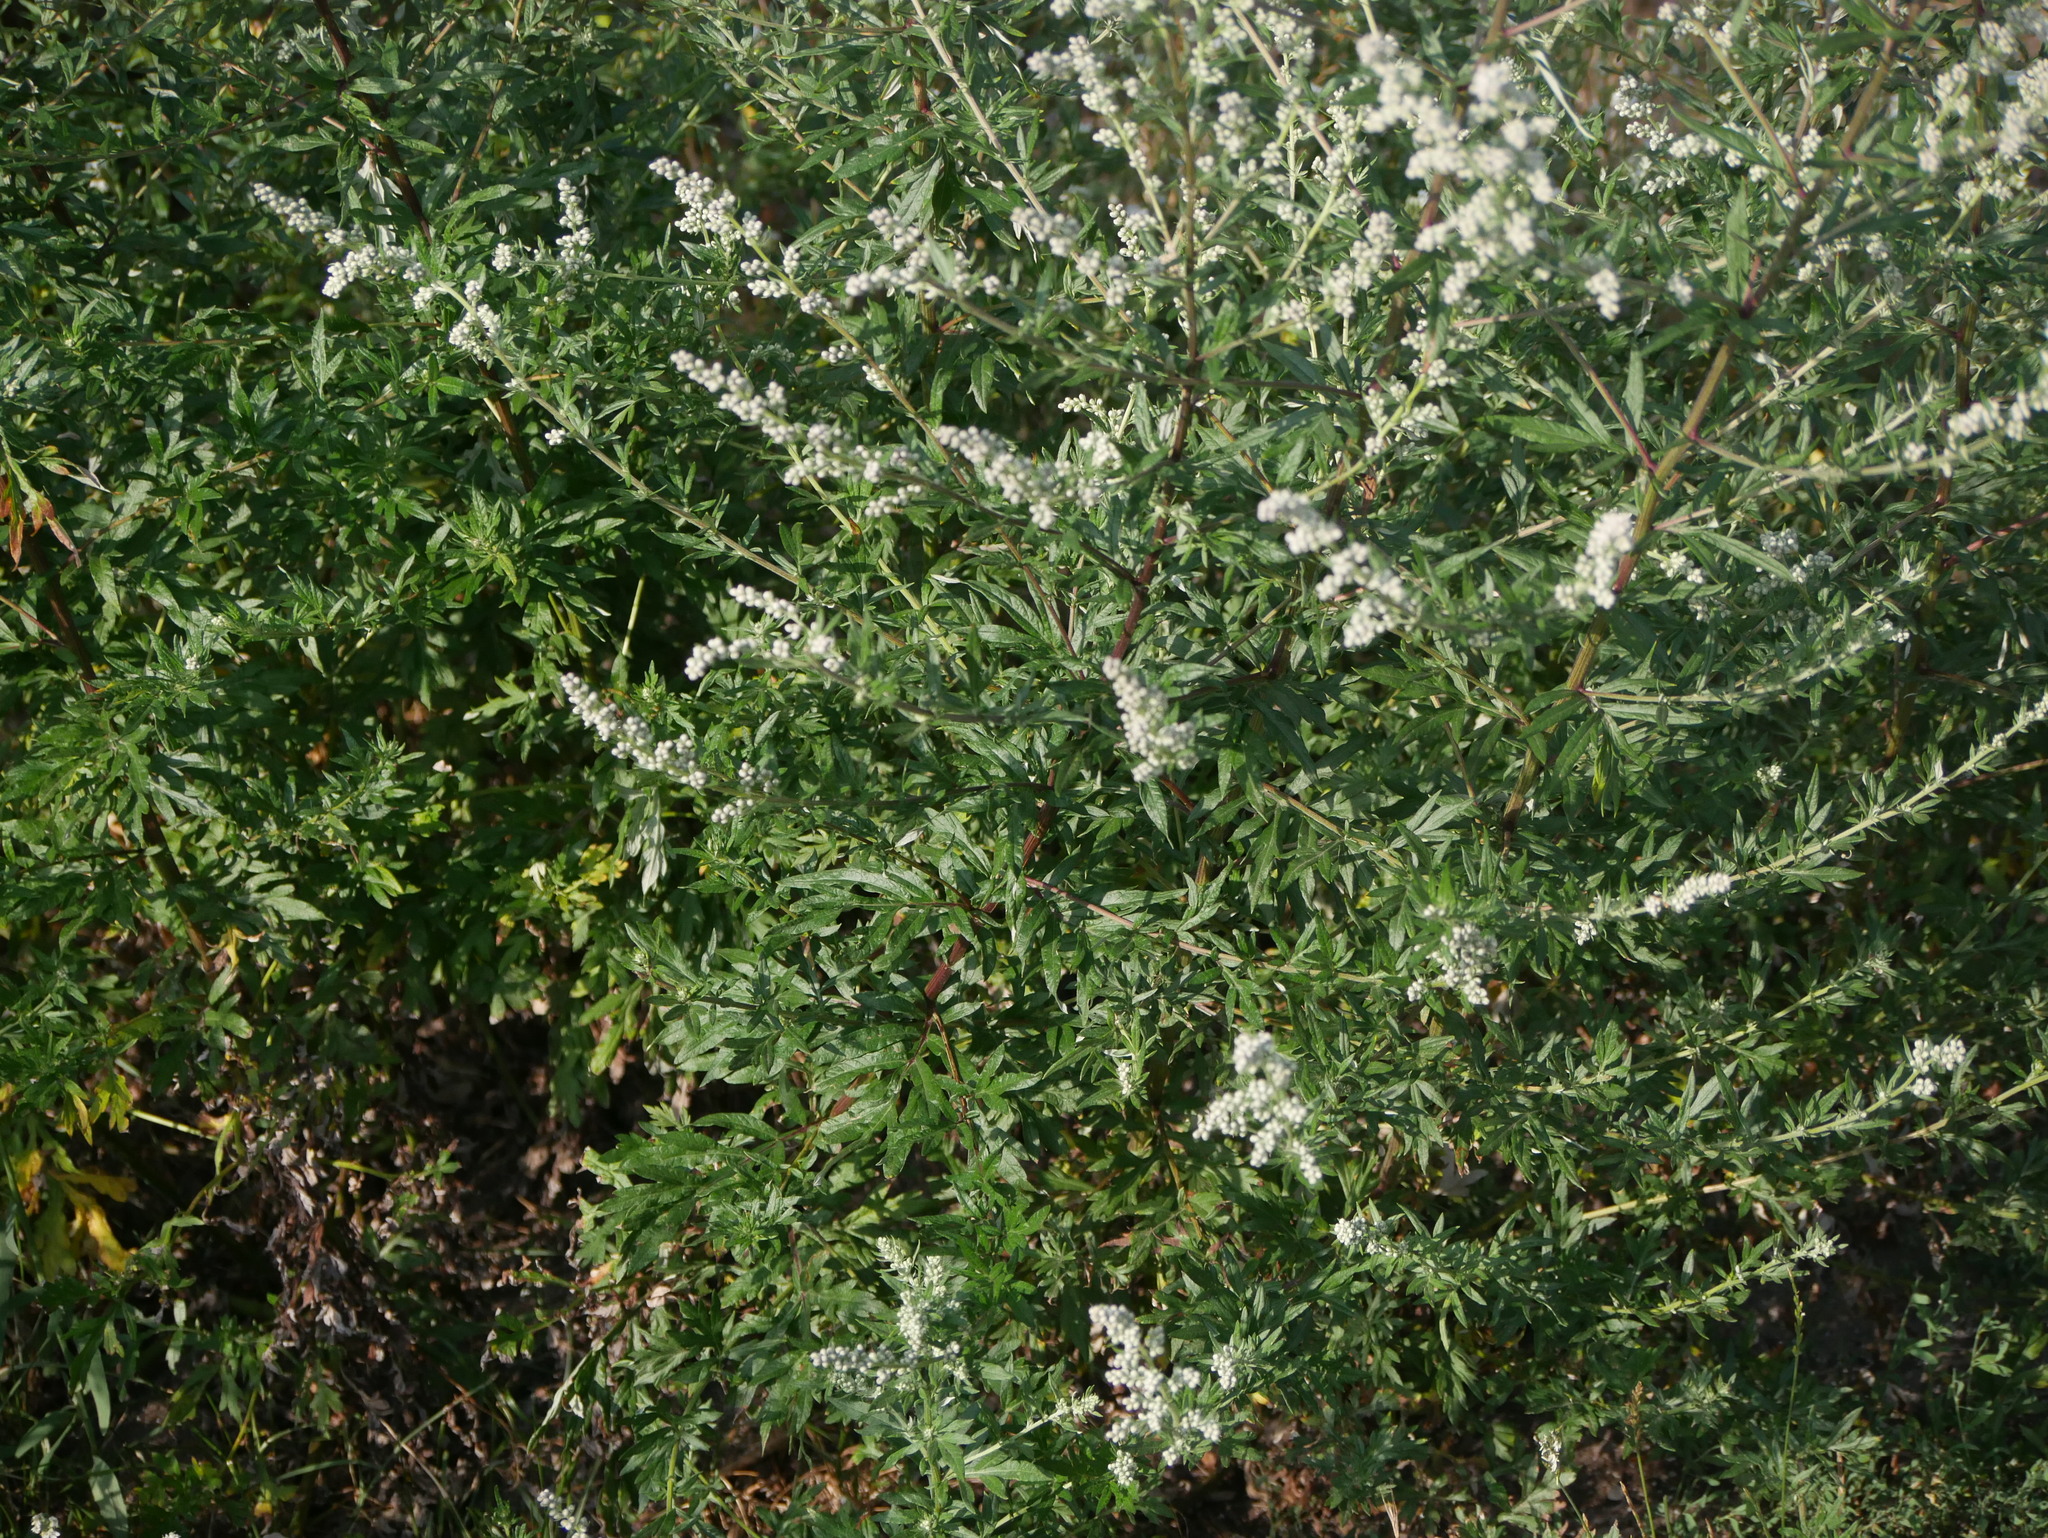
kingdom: Plantae
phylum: Tracheophyta
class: Magnoliopsida
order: Asterales
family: Asteraceae
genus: Artemisia
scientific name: Artemisia vulgaris
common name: Mugwort
